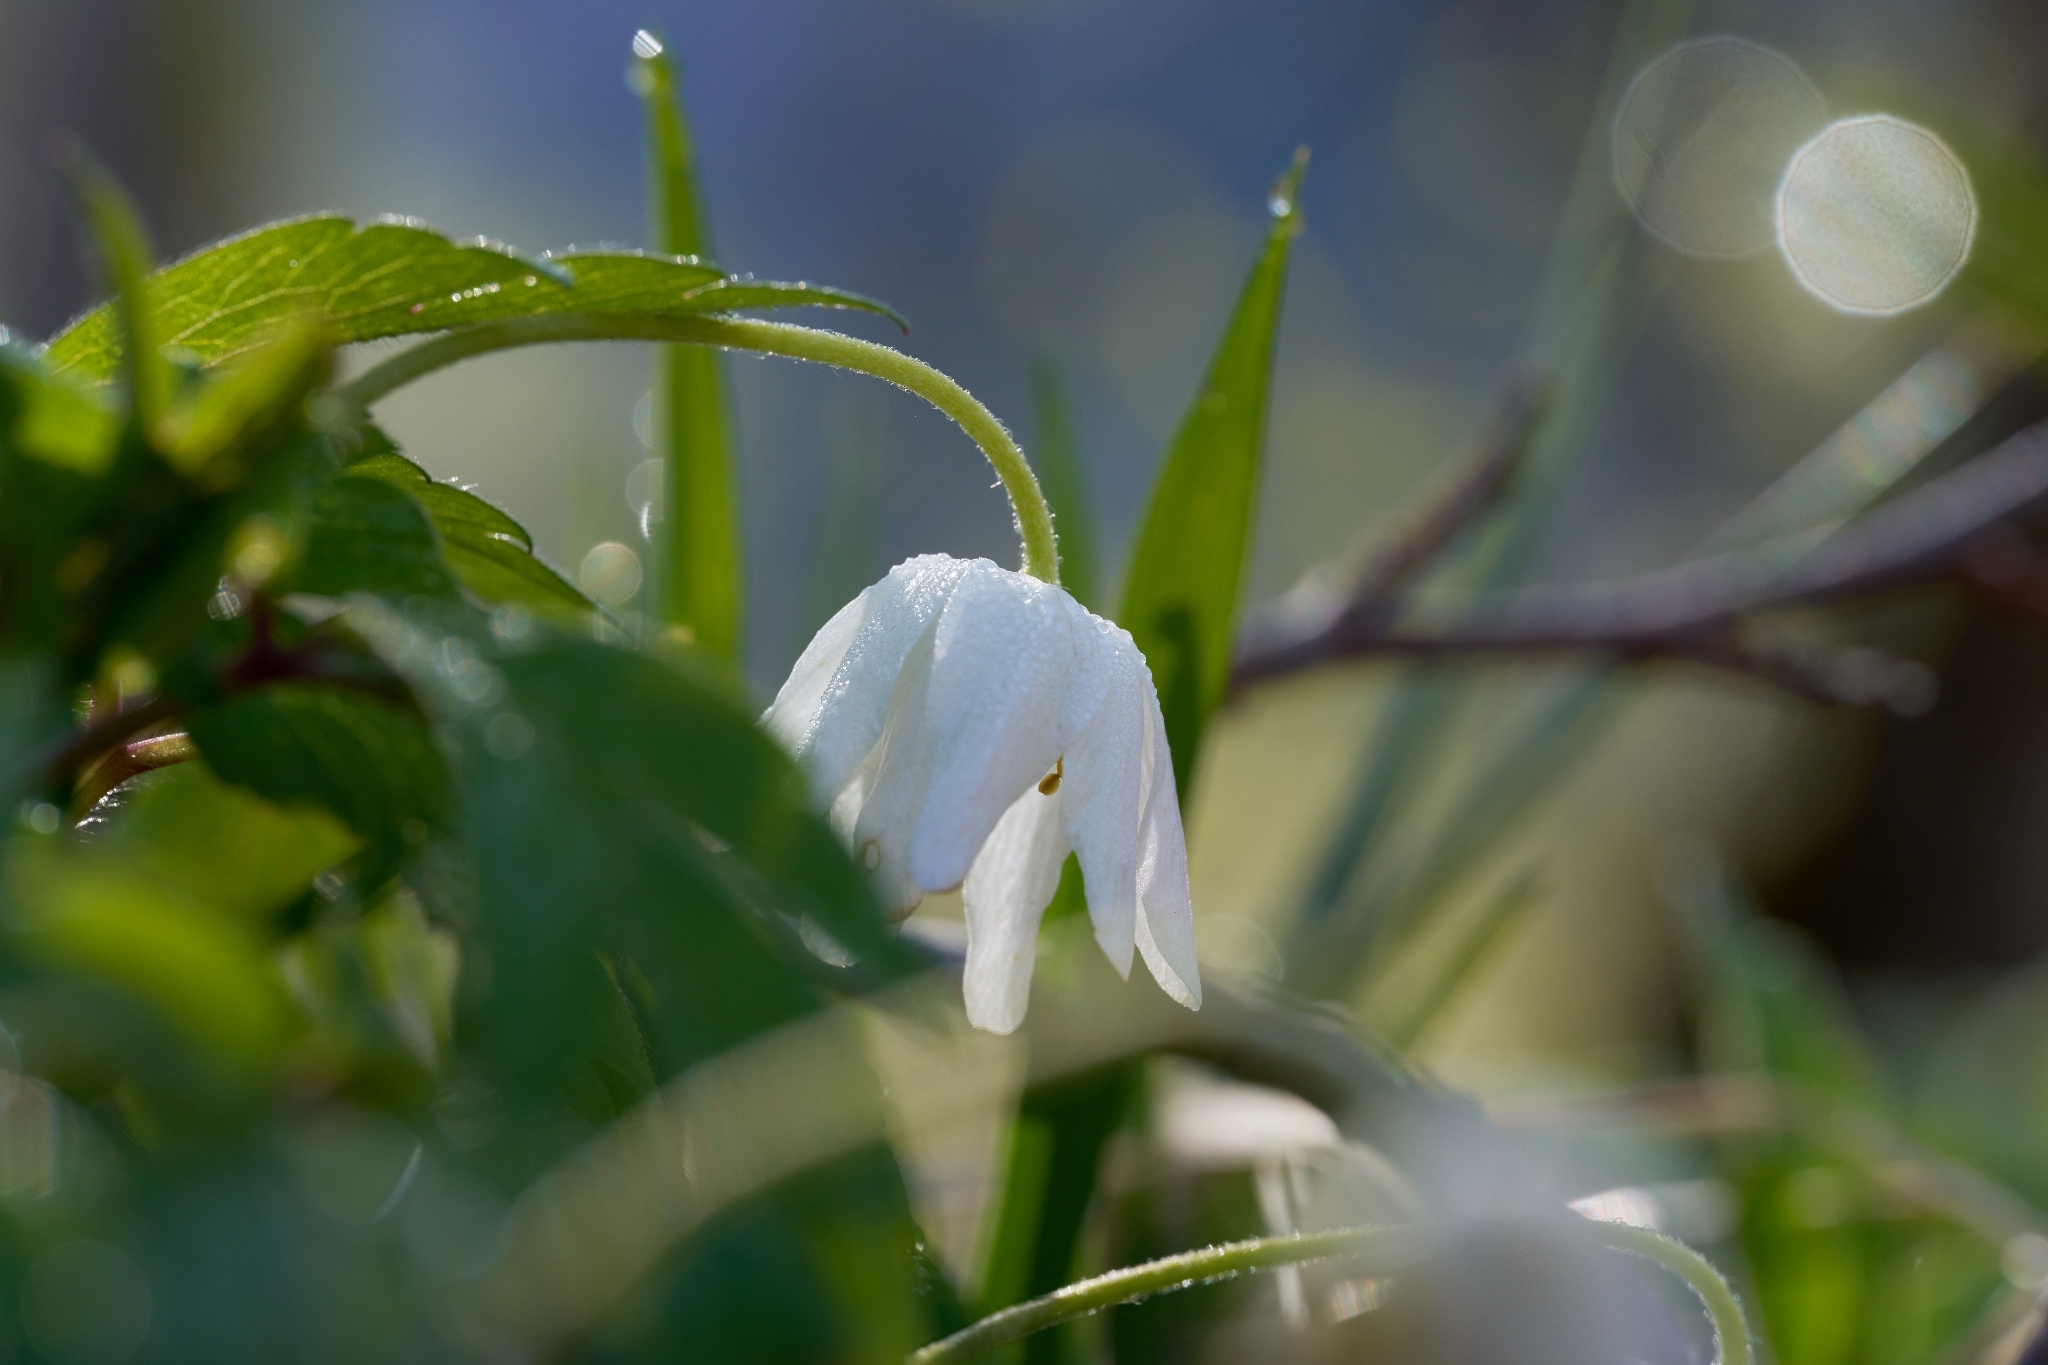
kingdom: Plantae
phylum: Tracheophyta
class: Magnoliopsida
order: Ranunculales
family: Ranunculaceae
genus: Anemone
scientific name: Anemone nemorosa
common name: Wood anemone
